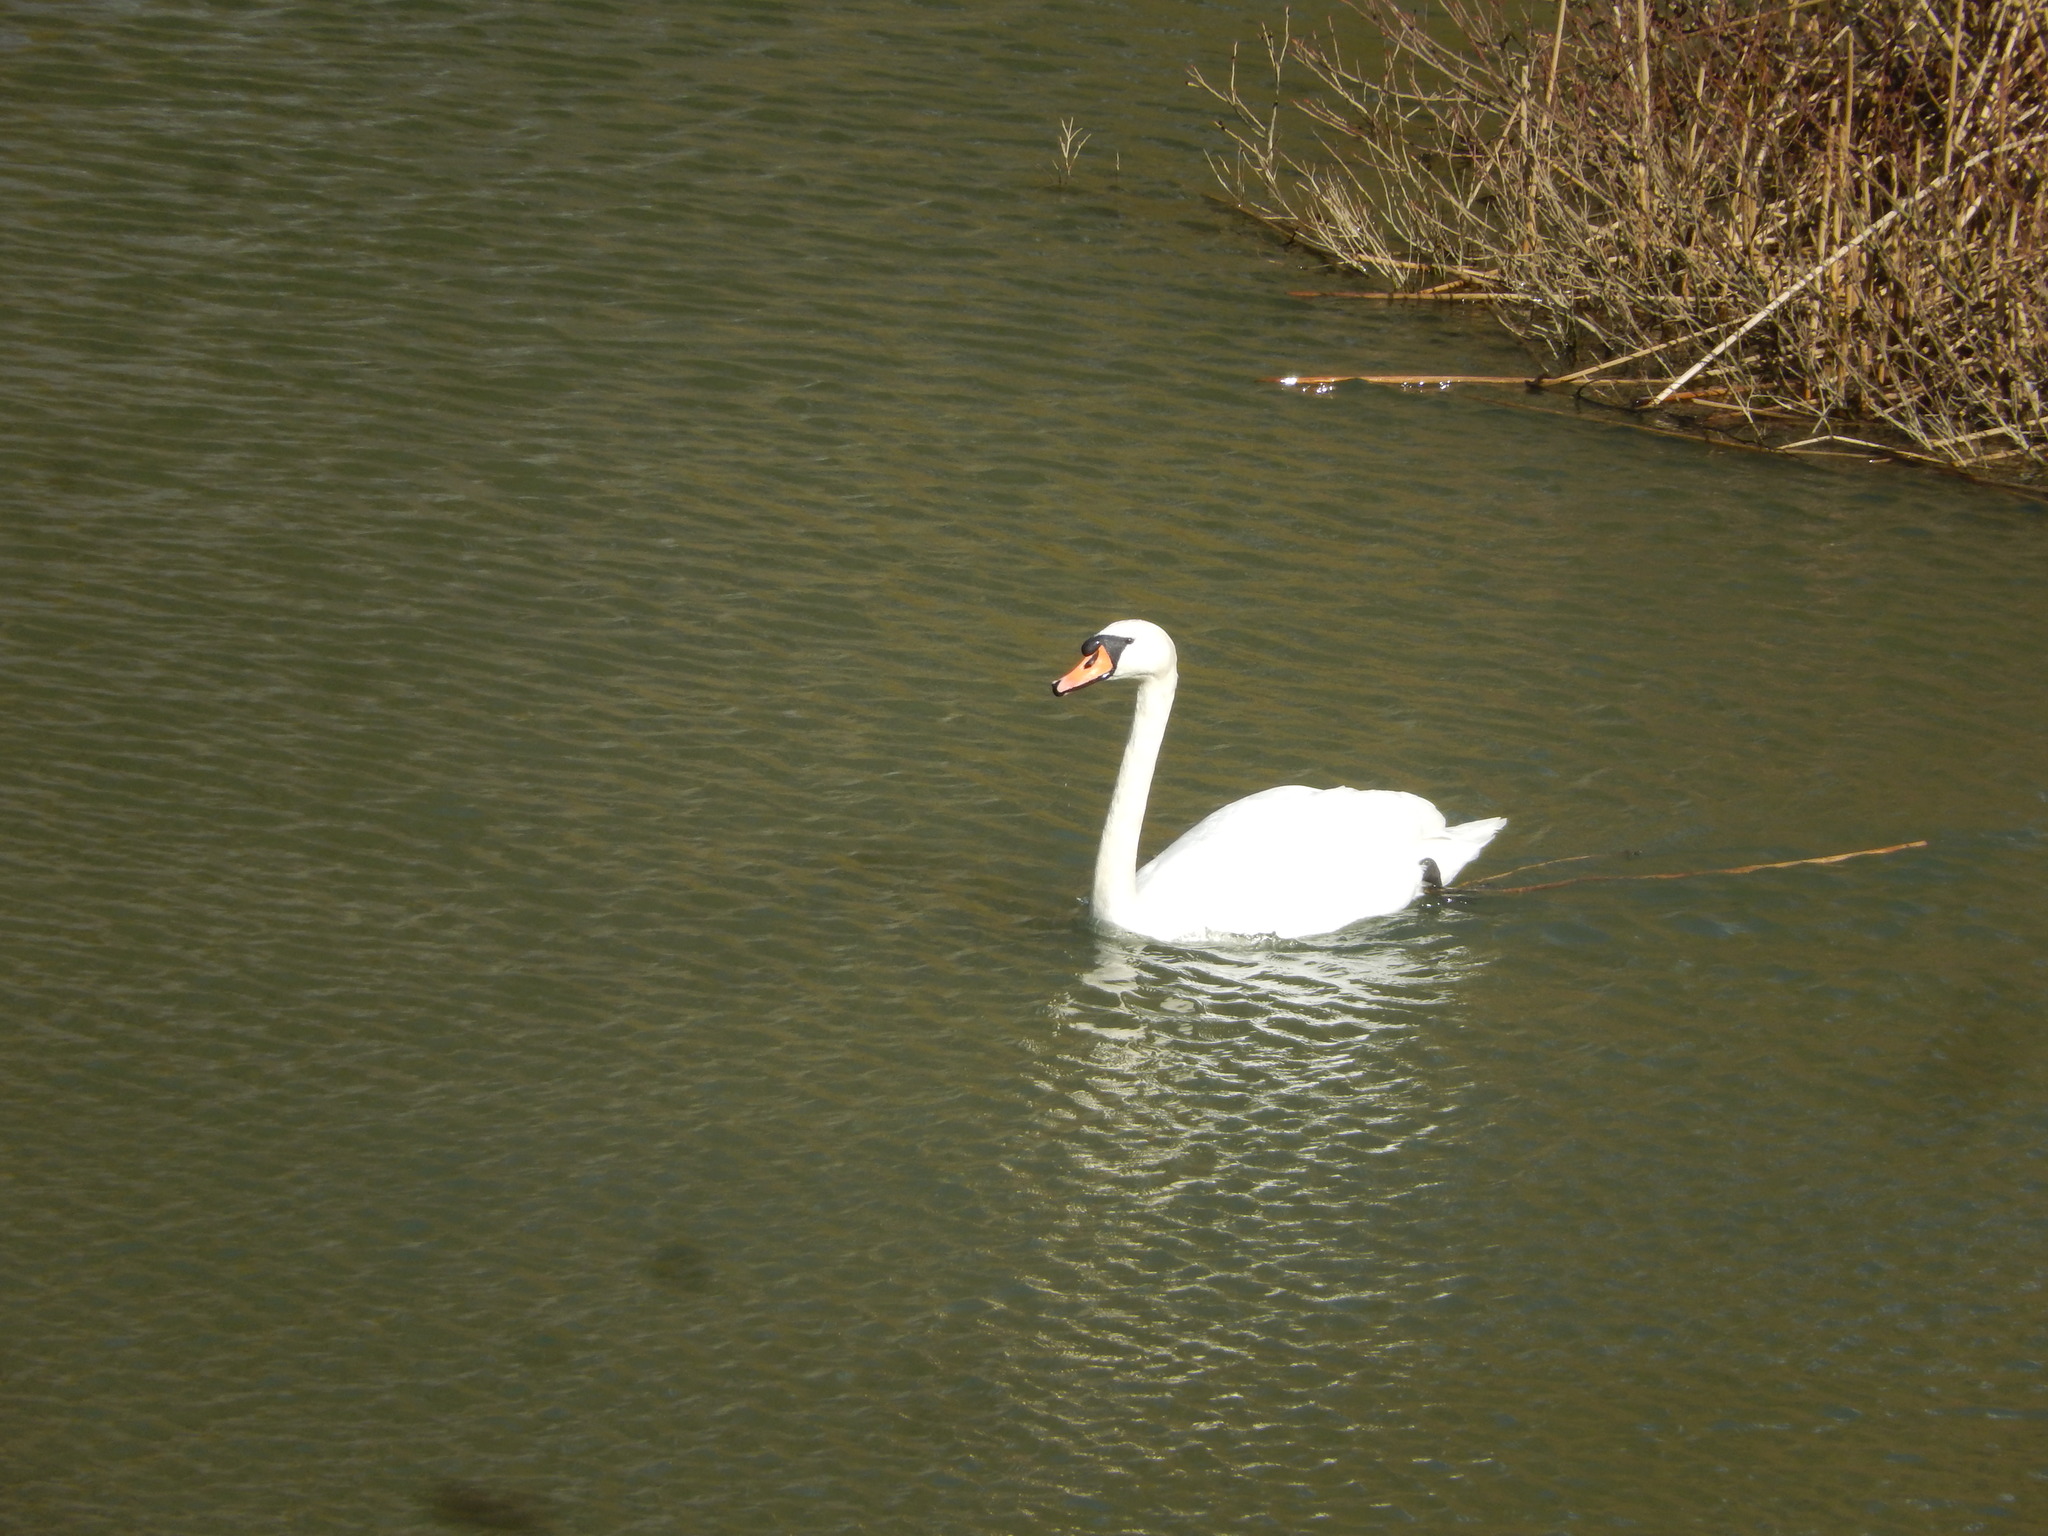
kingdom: Animalia
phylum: Chordata
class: Aves
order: Anseriformes
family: Anatidae
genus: Cygnus
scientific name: Cygnus olor
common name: Mute swan
